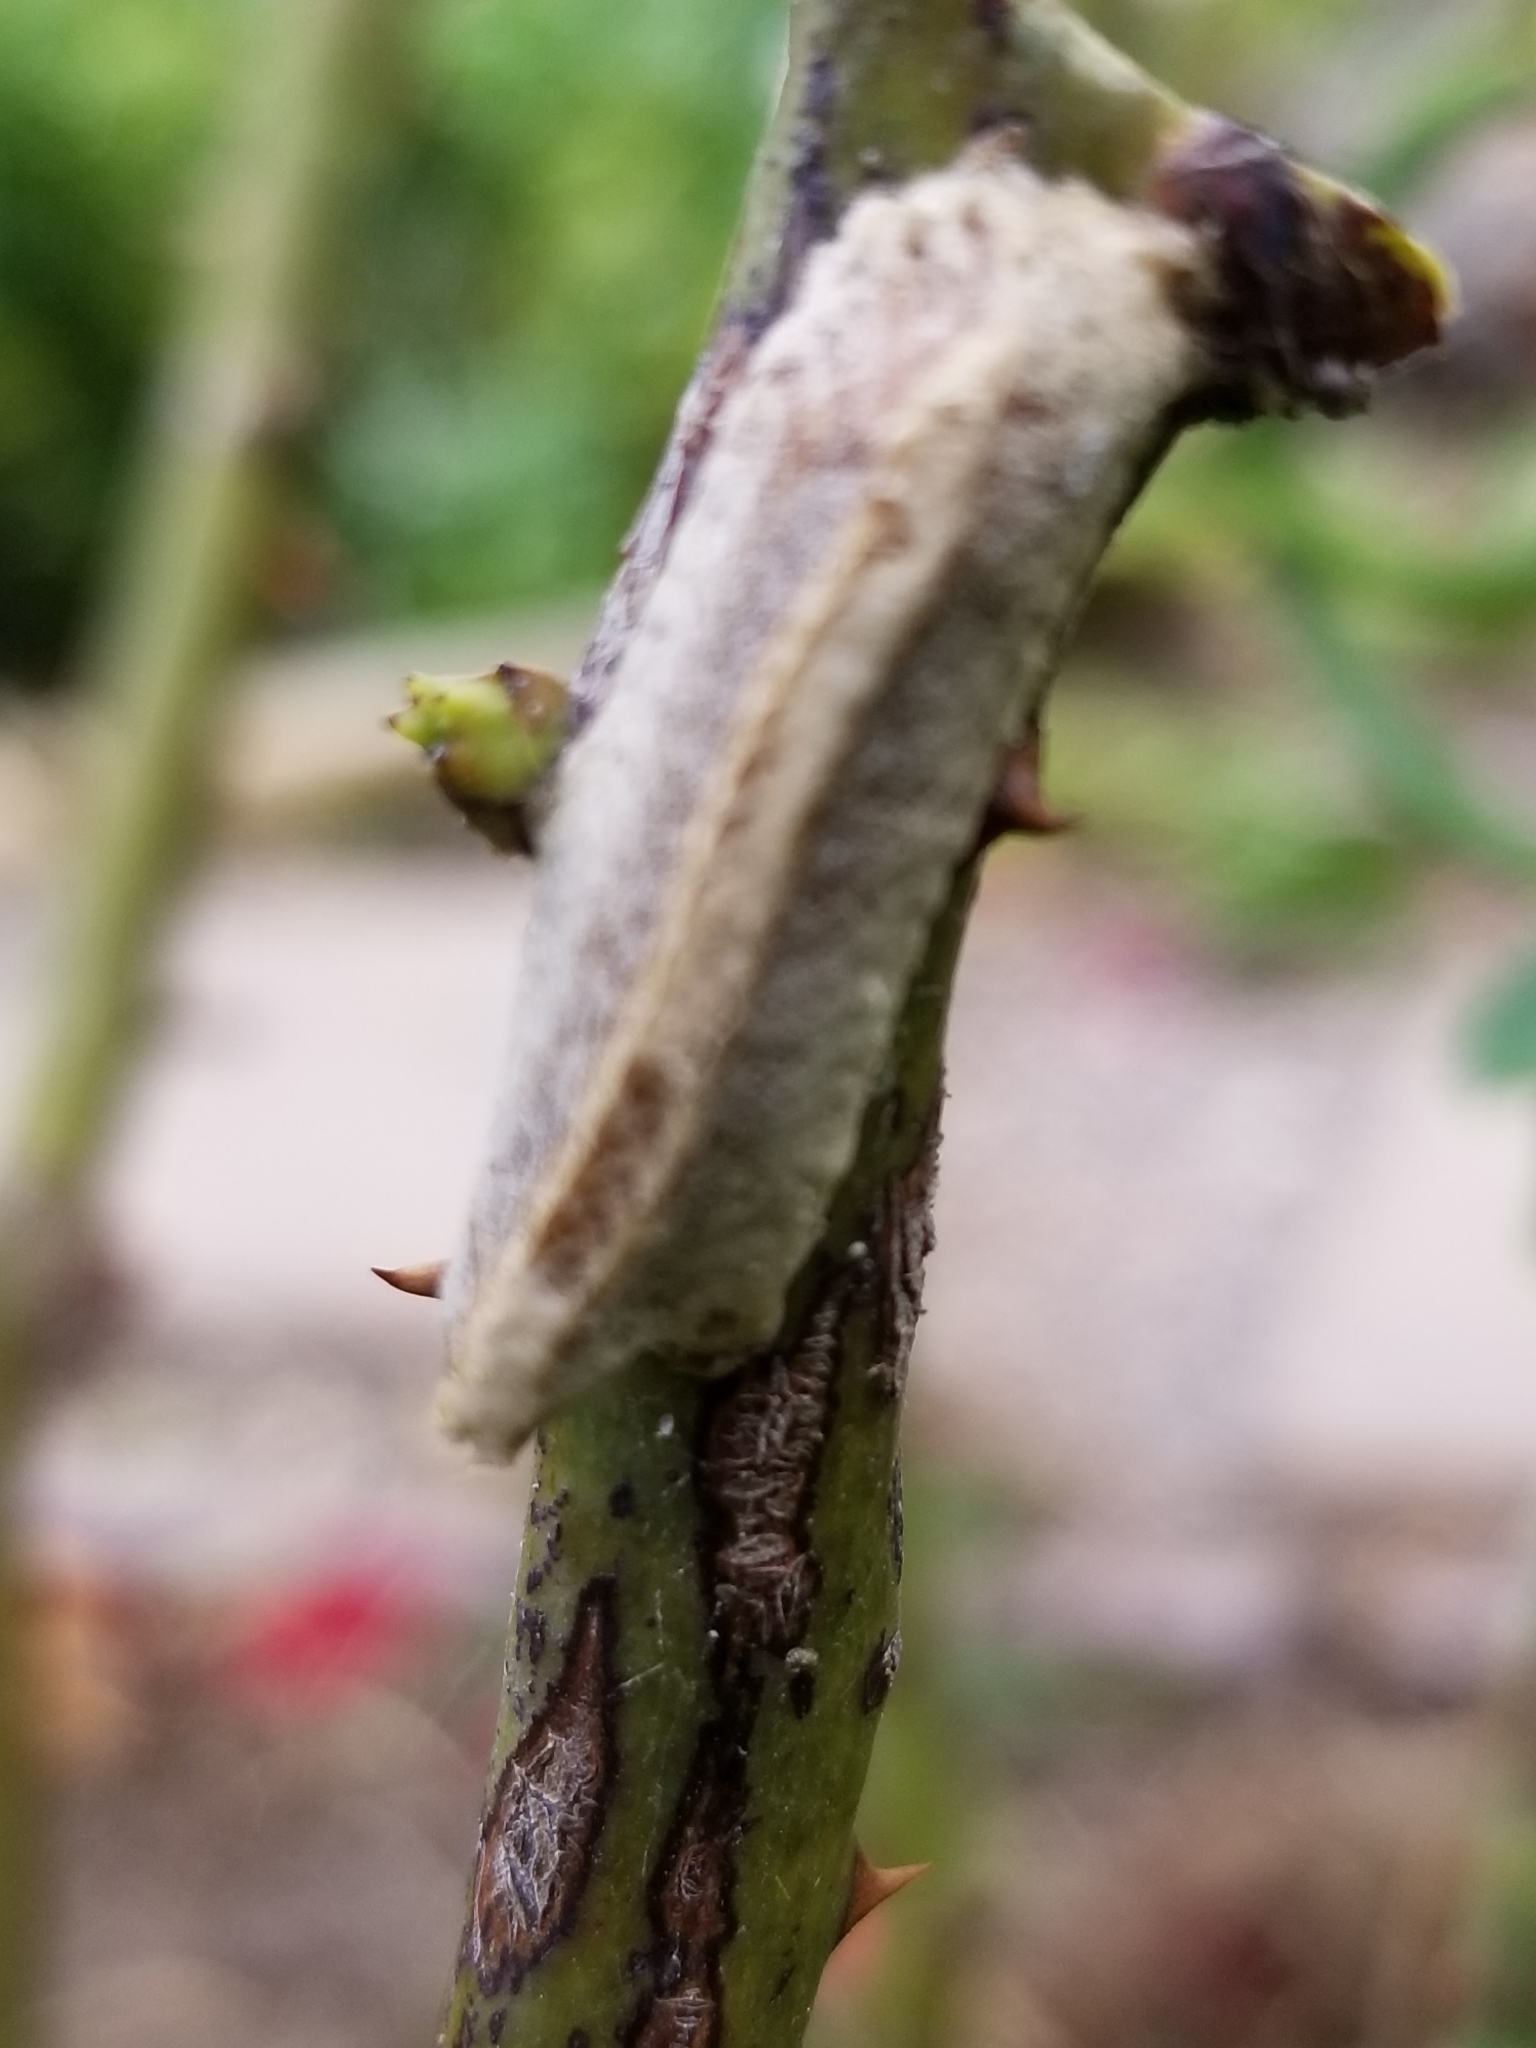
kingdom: Animalia
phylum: Arthropoda
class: Insecta
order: Mantodea
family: Eremiaphilidae
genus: Iris
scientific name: Iris oratoria
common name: Mediterranean mantis
